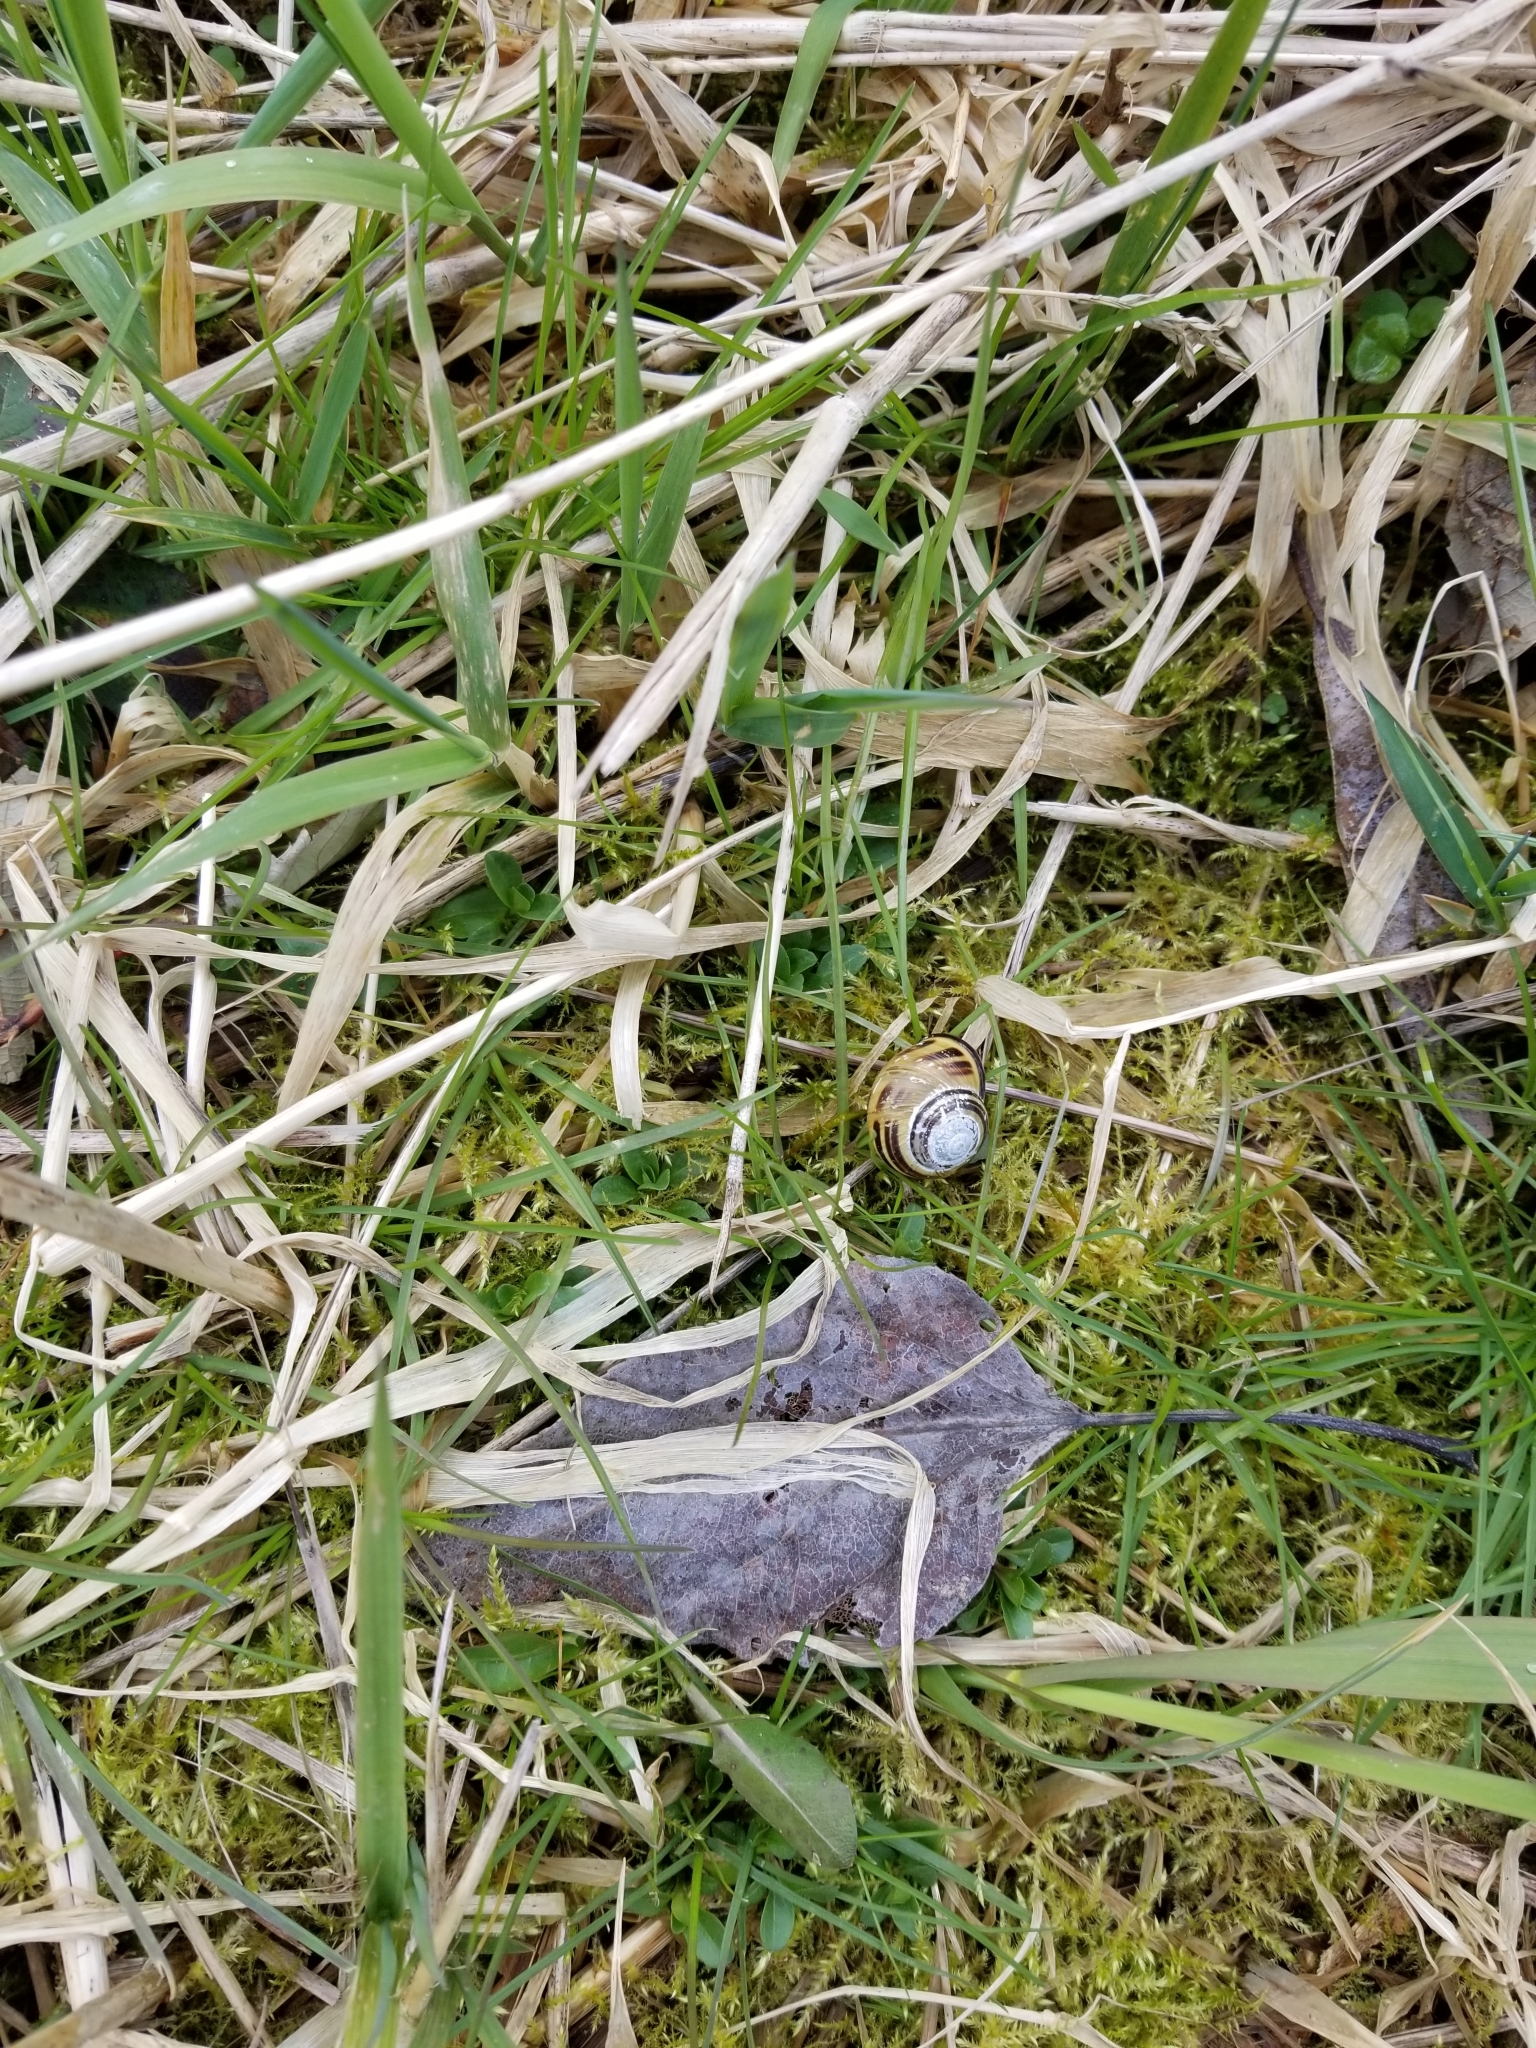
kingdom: Animalia
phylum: Mollusca
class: Gastropoda
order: Stylommatophora
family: Helicidae
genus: Cepaea
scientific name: Cepaea nemoralis
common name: Grovesnail
